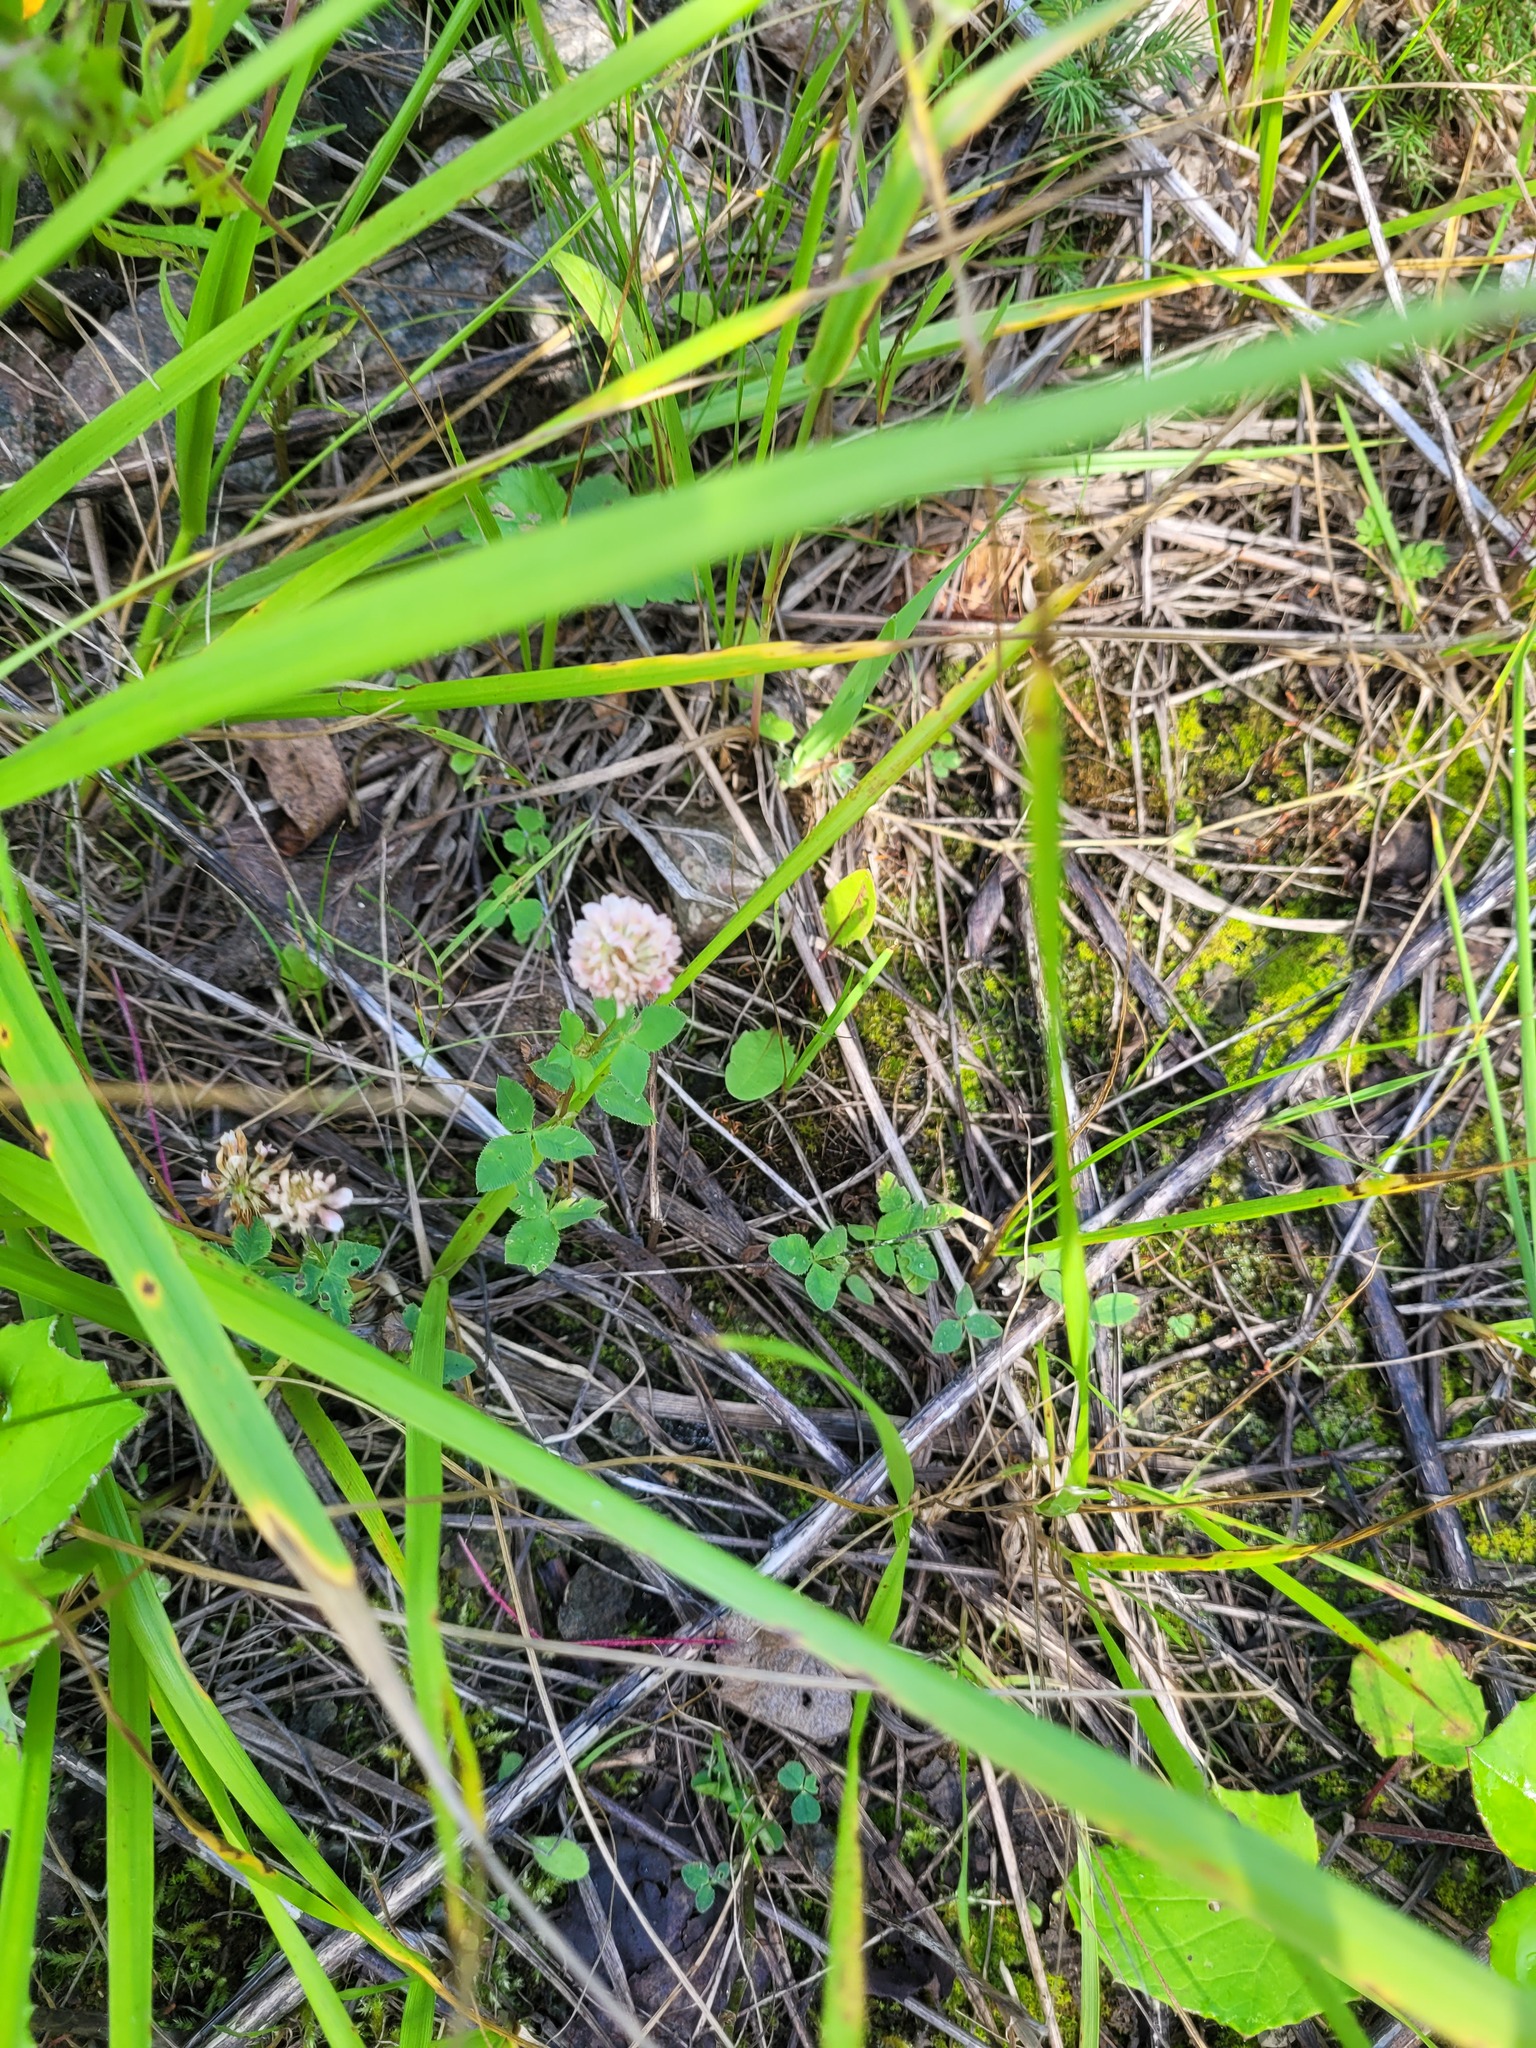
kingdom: Plantae
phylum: Tracheophyta
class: Magnoliopsida
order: Fabales
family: Fabaceae
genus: Trifolium
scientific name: Trifolium hybridum
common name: Alsike clover
